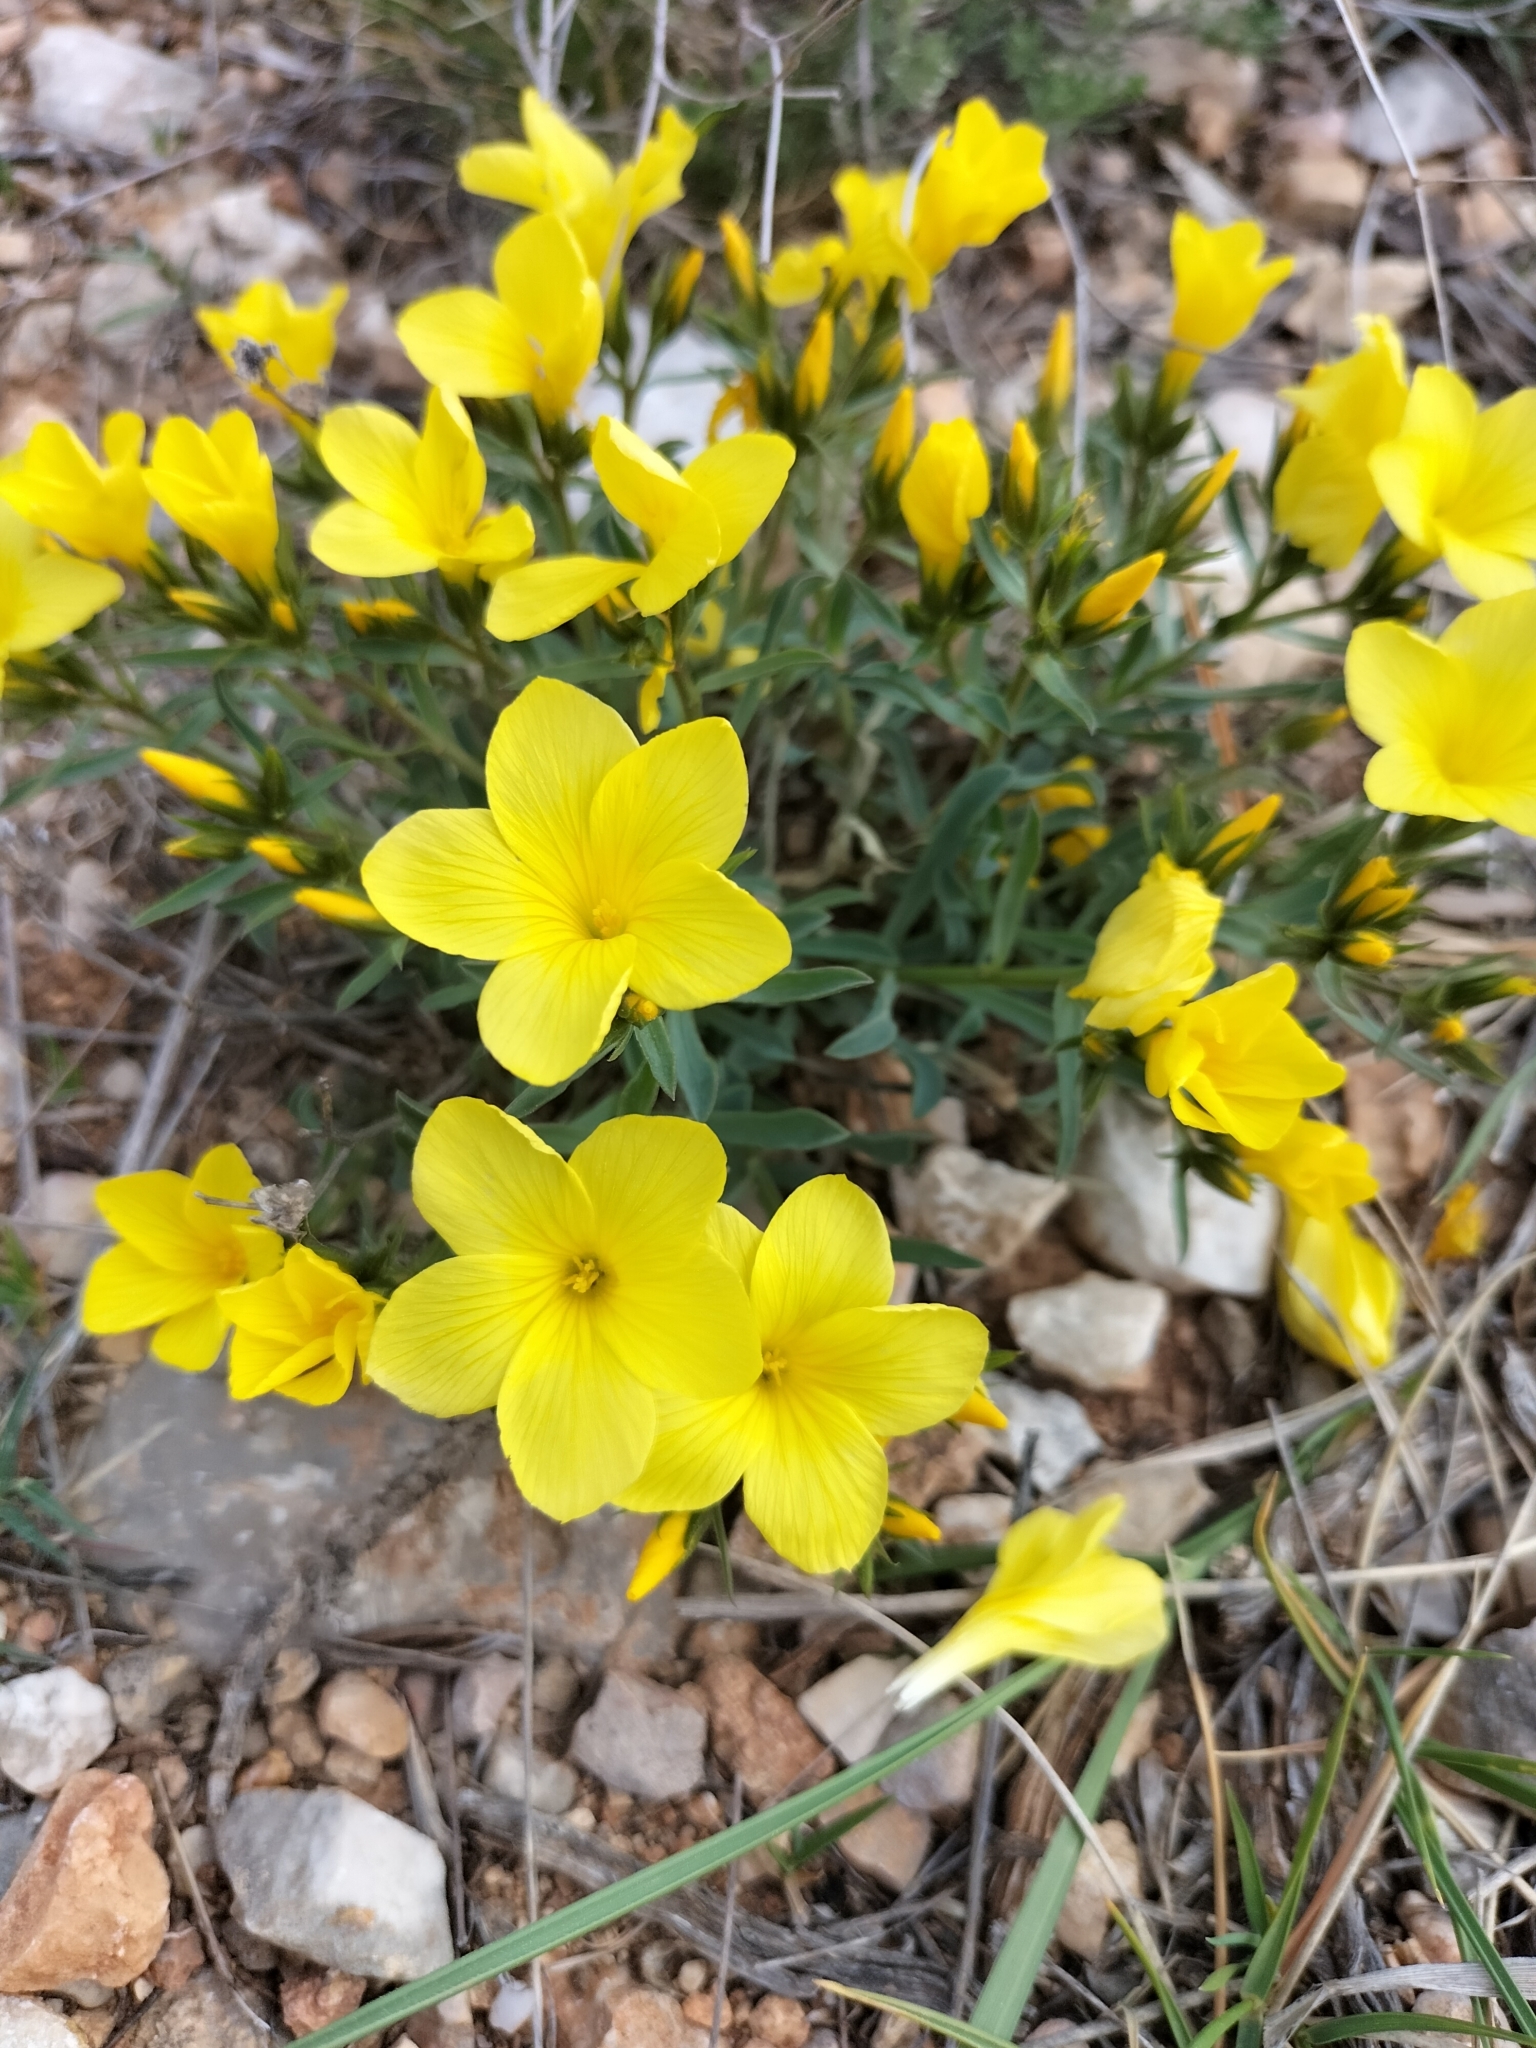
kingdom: Plantae
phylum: Tracheophyta
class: Magnoliopsida
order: Malpighiales
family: Linaceae
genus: Linum
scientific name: Linum campanulatum
